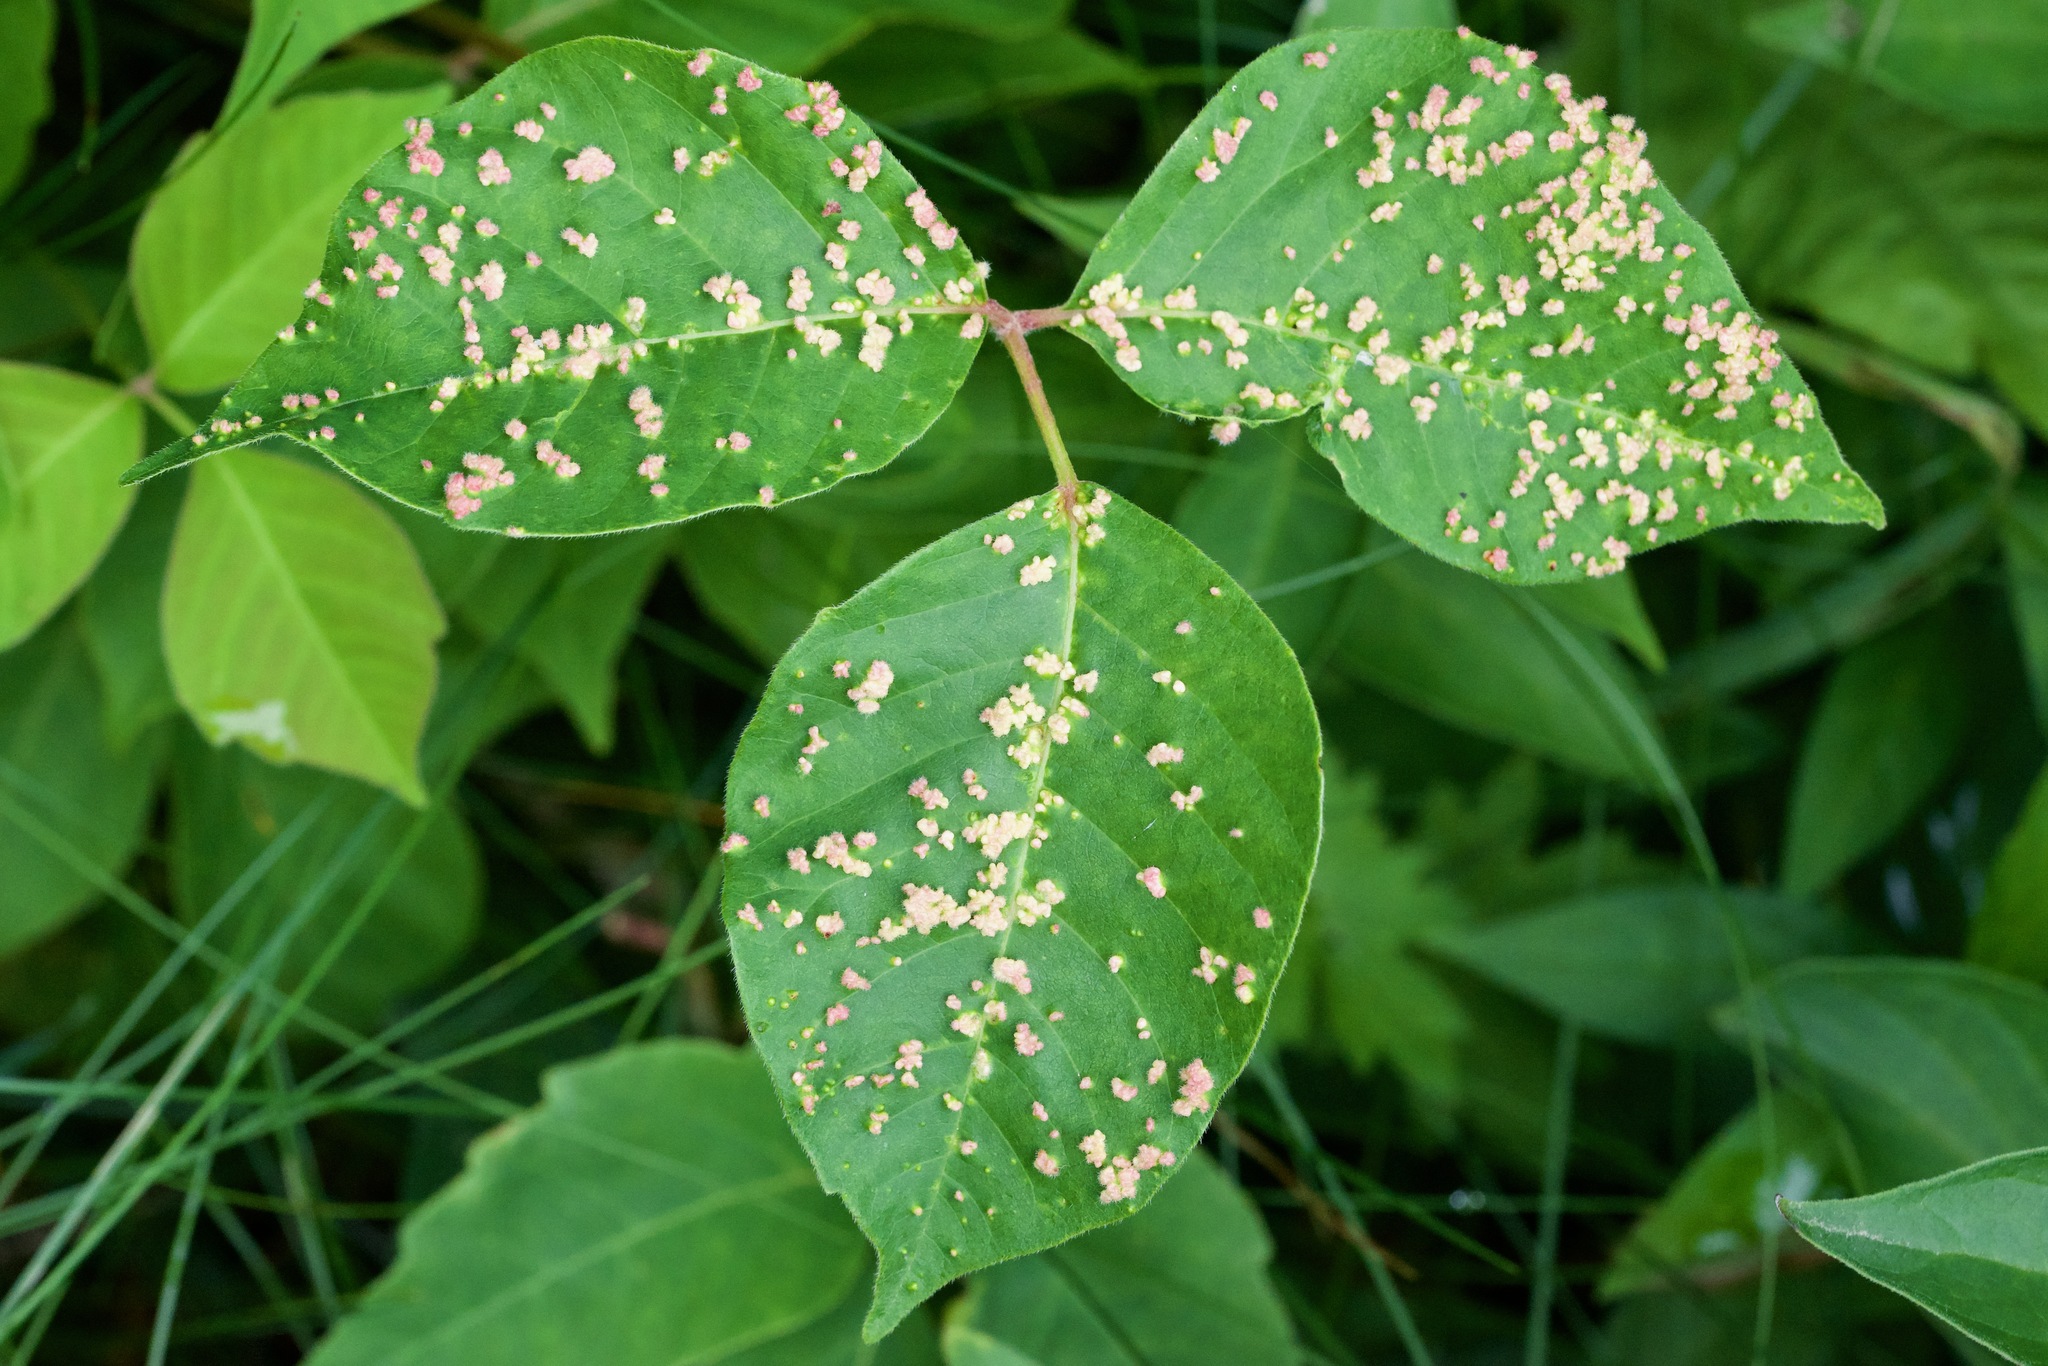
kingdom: Animalia
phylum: Arthropoda
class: Arachnida
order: Trombidiformes
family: Eriophyidae
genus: Aculops
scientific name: Aculops
